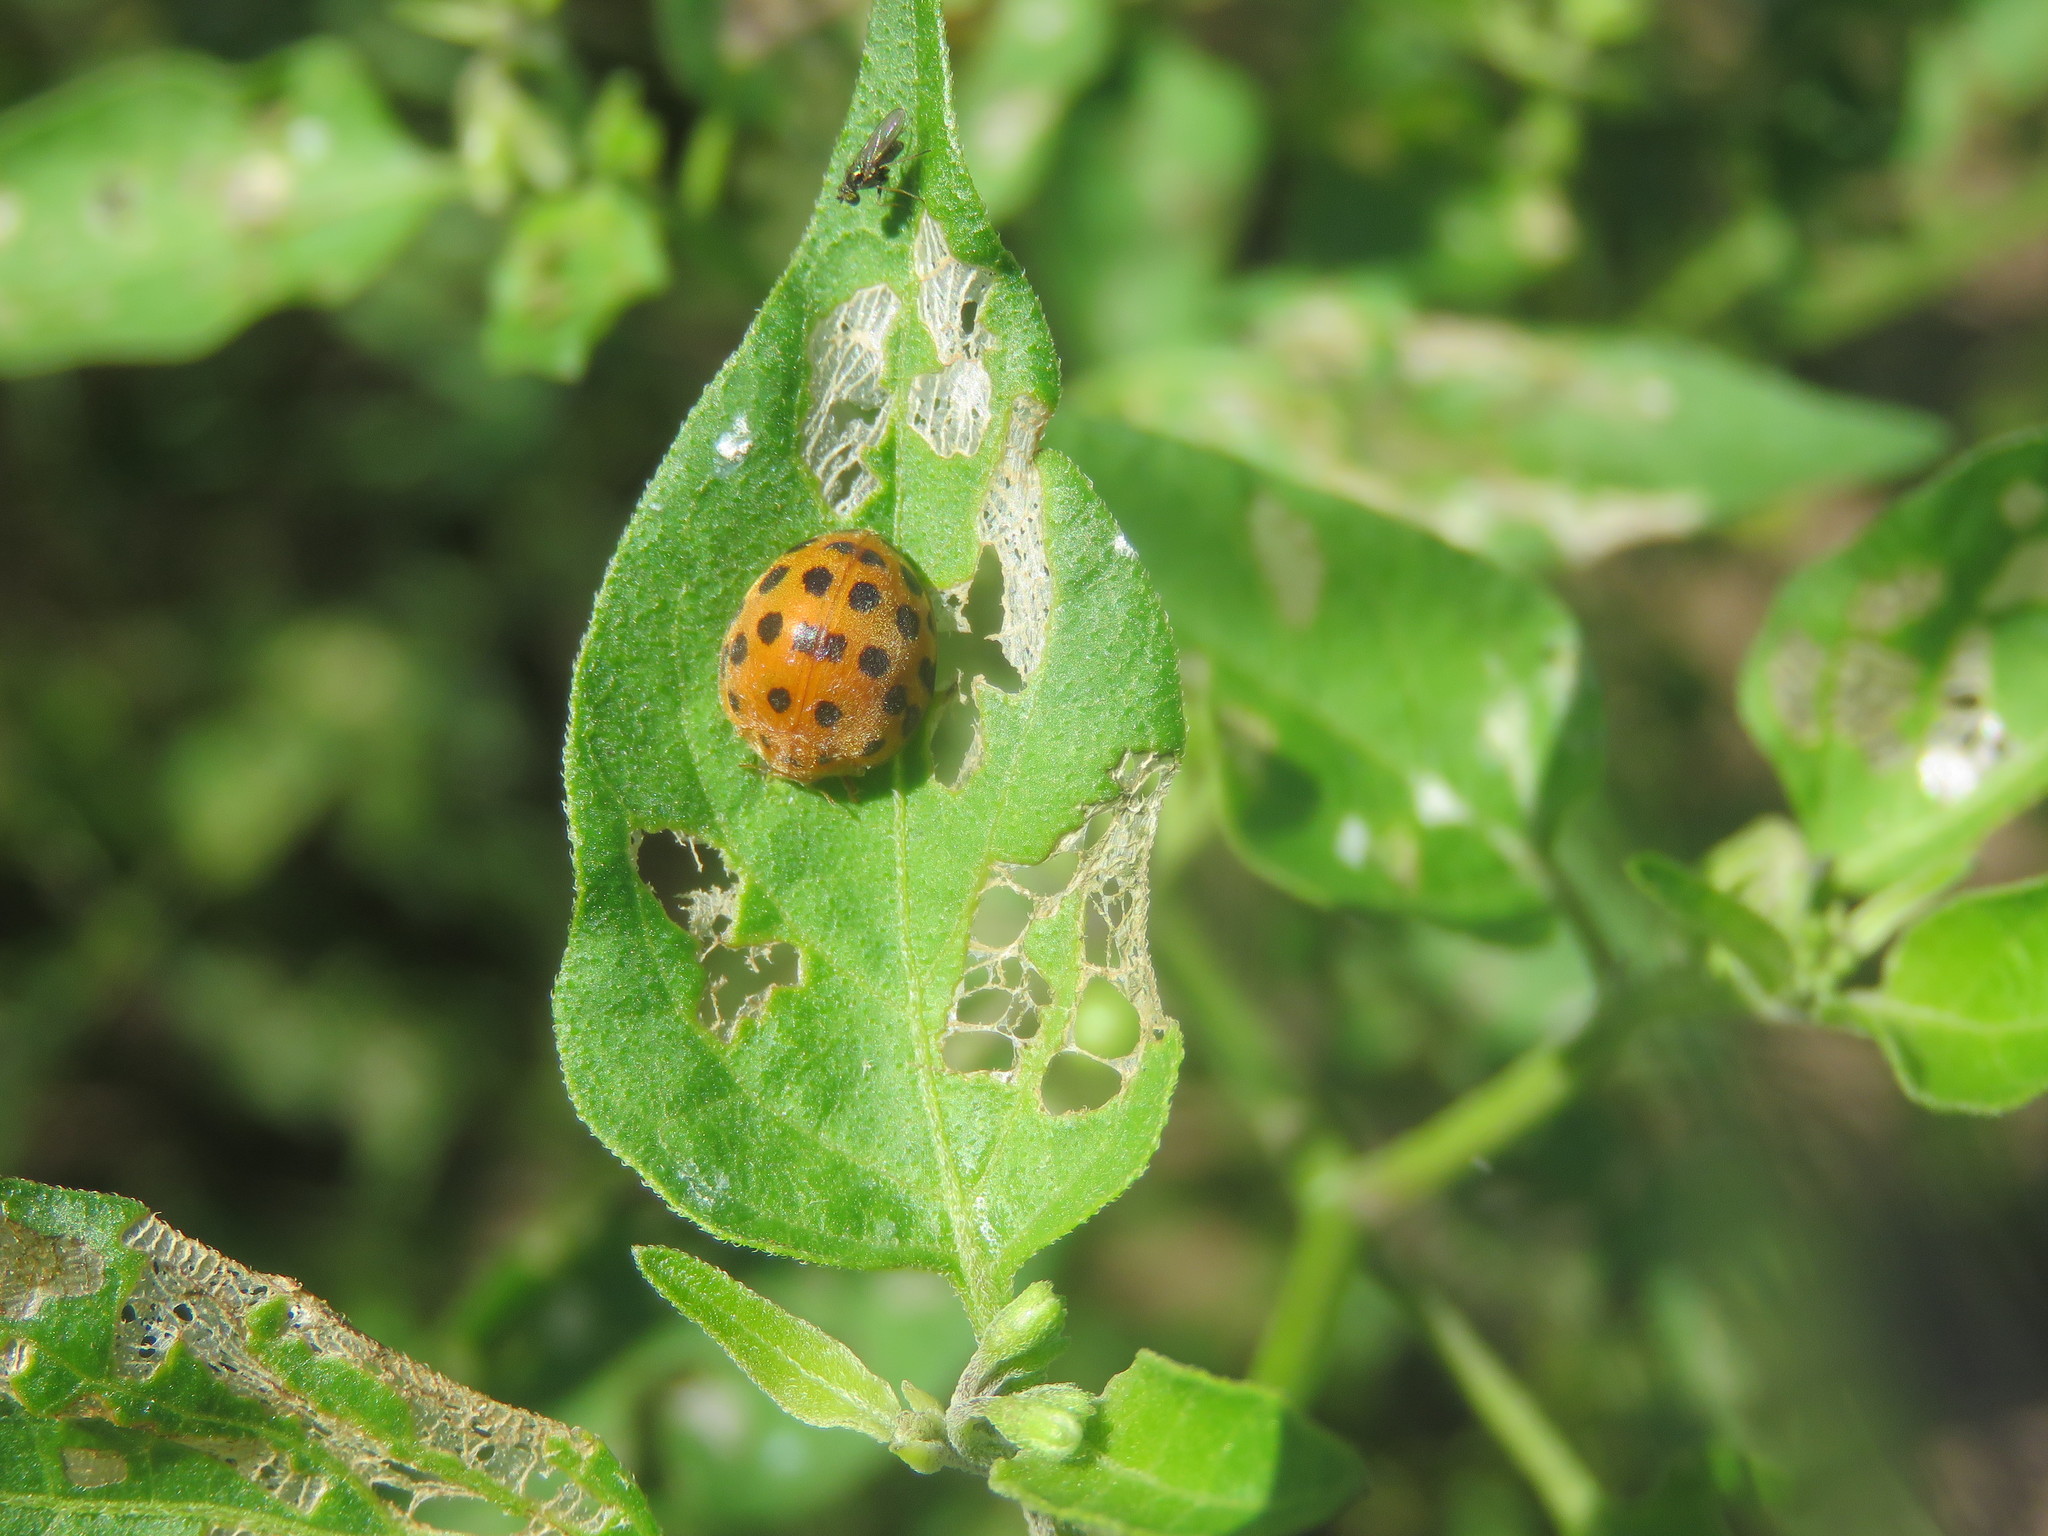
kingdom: Animalia
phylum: Arthropoda
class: Insecta
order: Coleoptera
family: Coccinellidae
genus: Henosepilachna
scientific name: Henosepilachna vigintioctopunctata
